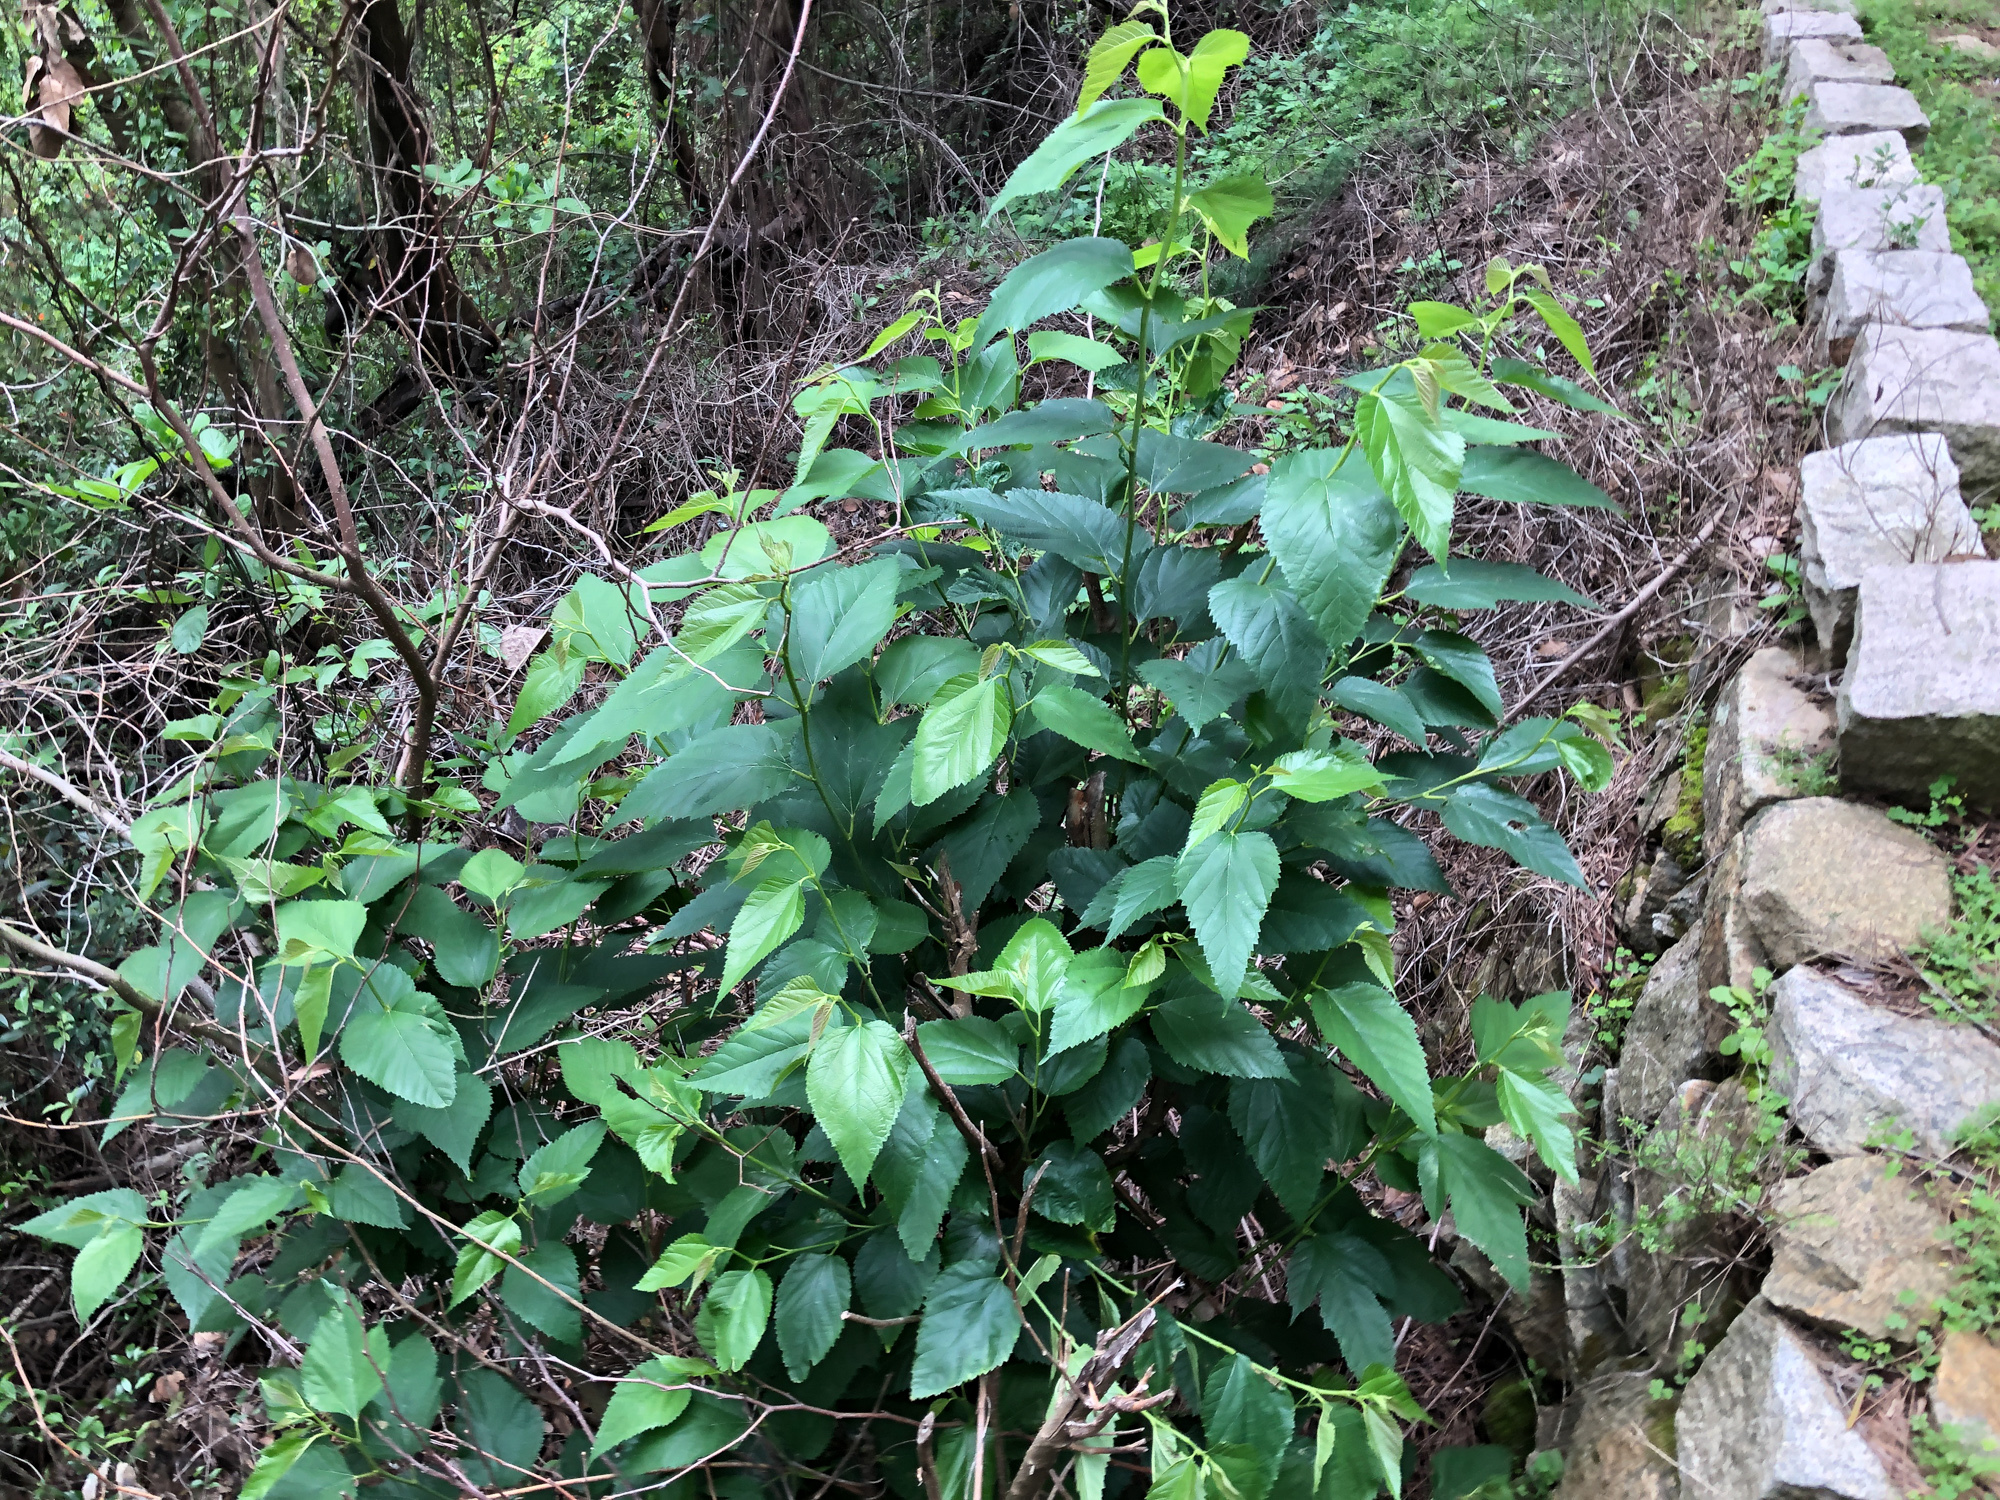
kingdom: Plantae
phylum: Tracheophyta
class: Magnoliopsida
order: Rosales
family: Moraceae
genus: Morus
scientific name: Morus indica
